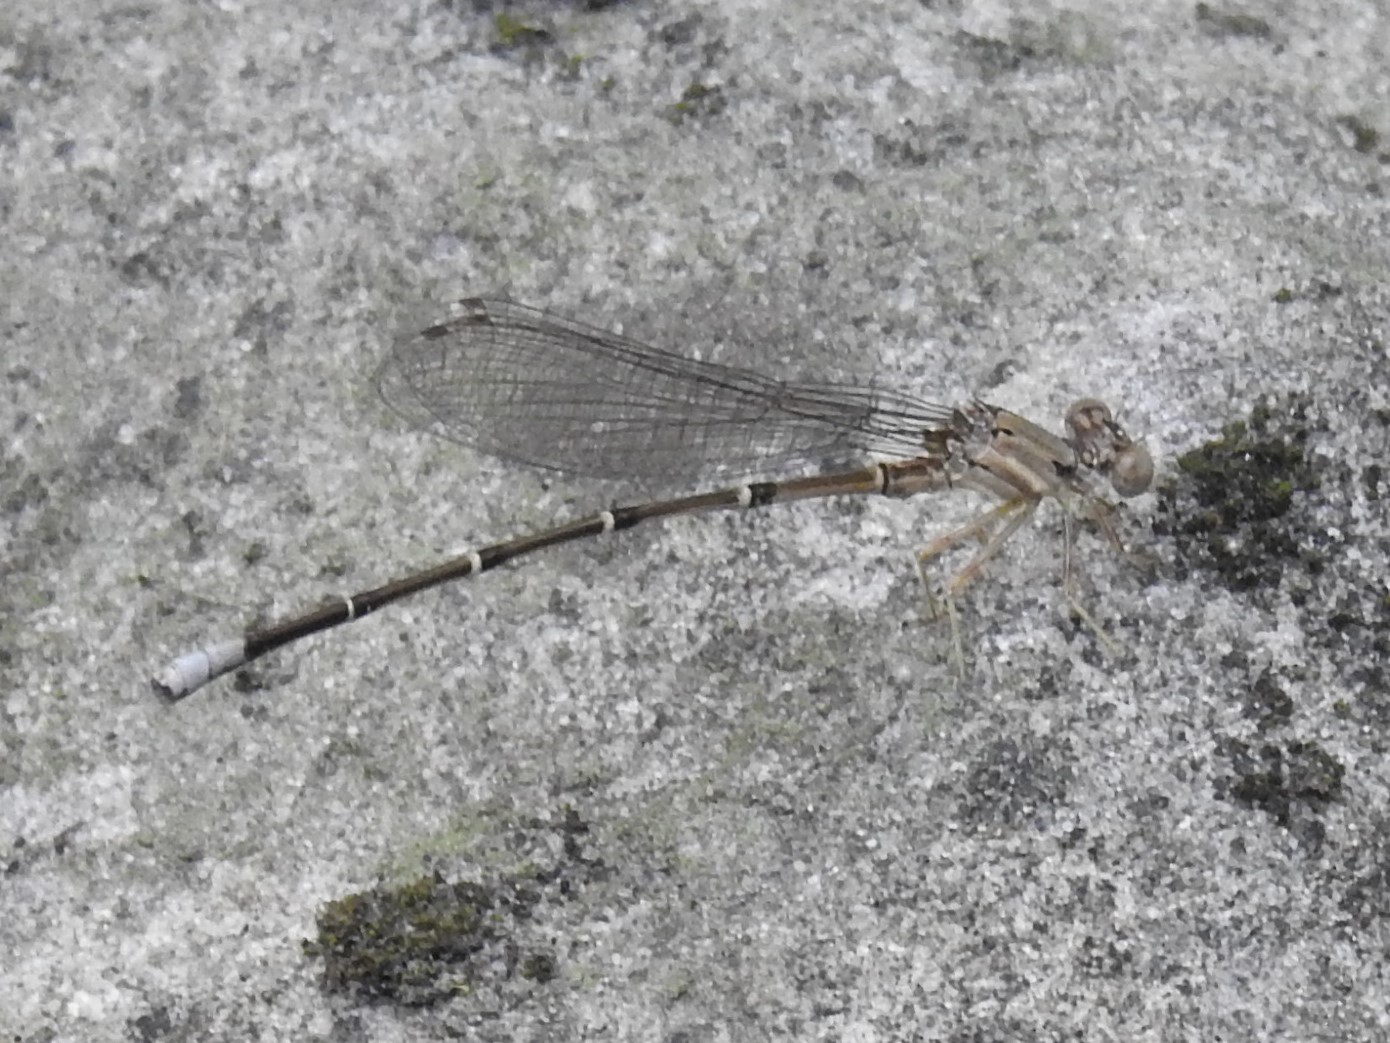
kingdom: Animalia
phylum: Arthropoda
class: Insecta
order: Odonata
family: Coenagrionidae
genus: Argia
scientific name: Argia apicalis
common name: Blue-fronted dancer
